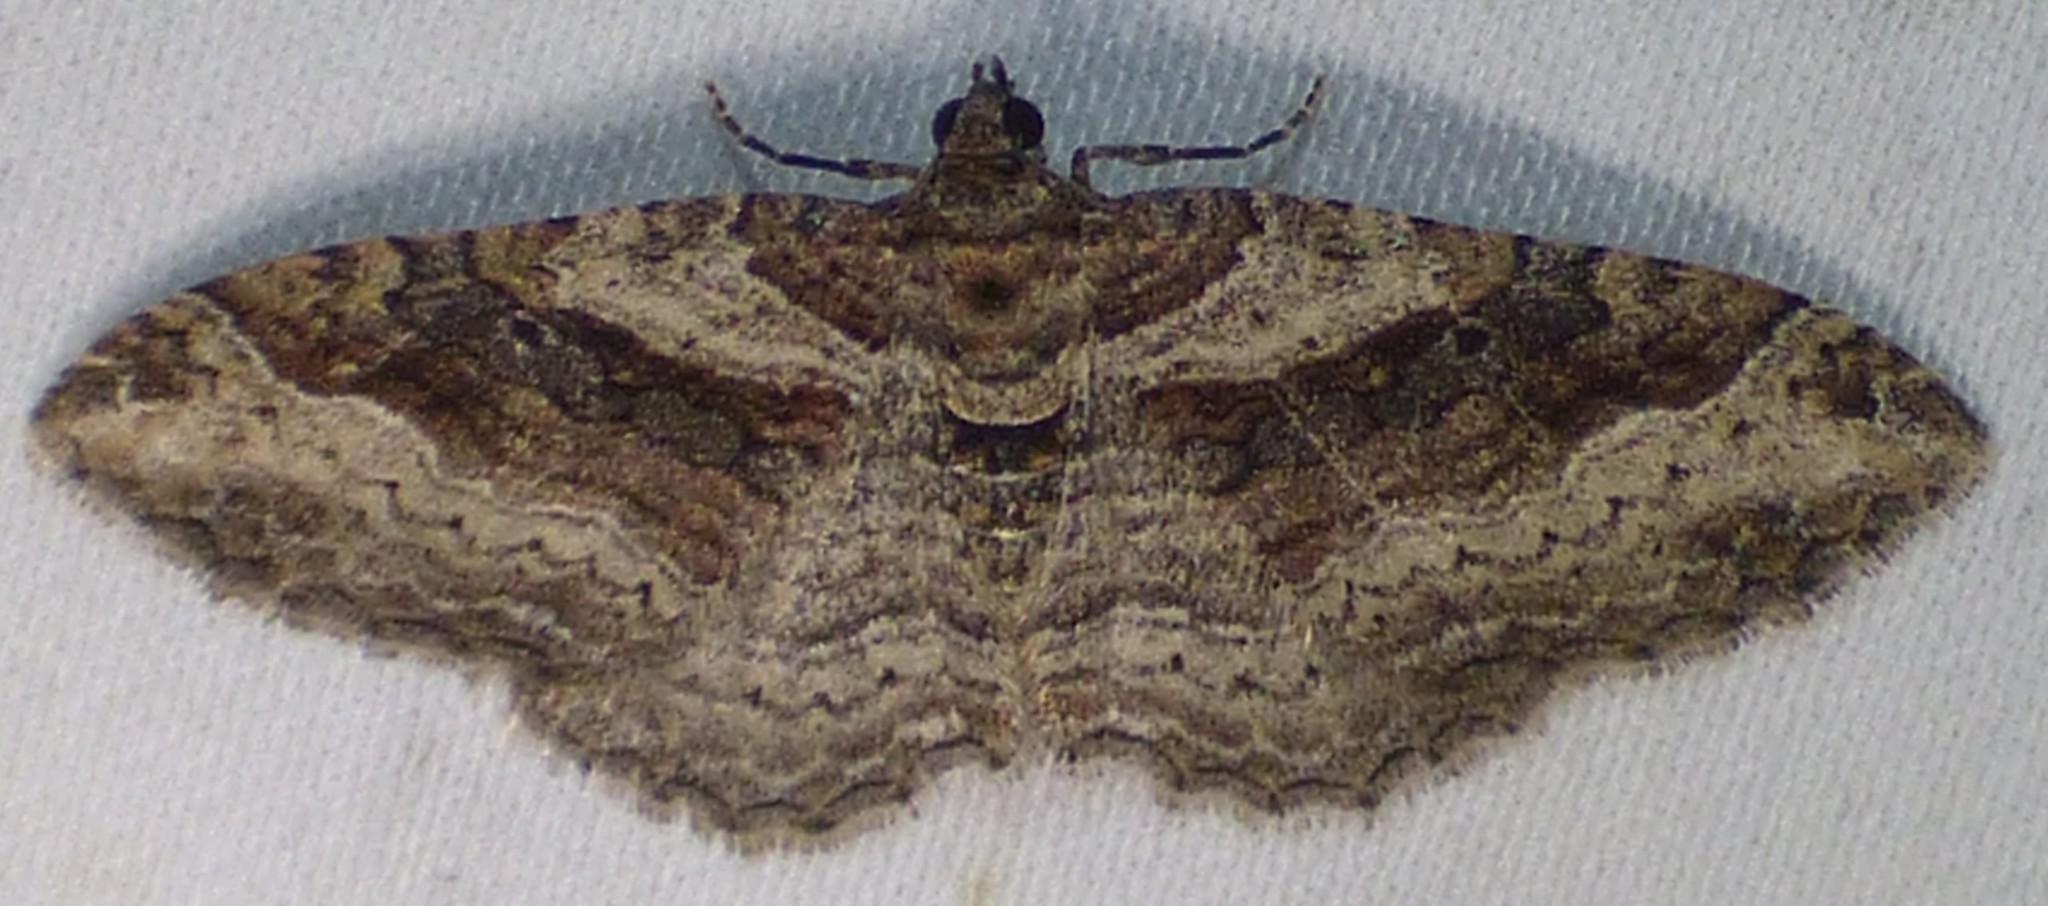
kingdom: Animalia
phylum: Arthropoda
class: Insecta
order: Lepidoptera
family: Geometridae
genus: Costaconvexa
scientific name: Costaconvexa centrostrigaria
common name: Bent-line carpet
